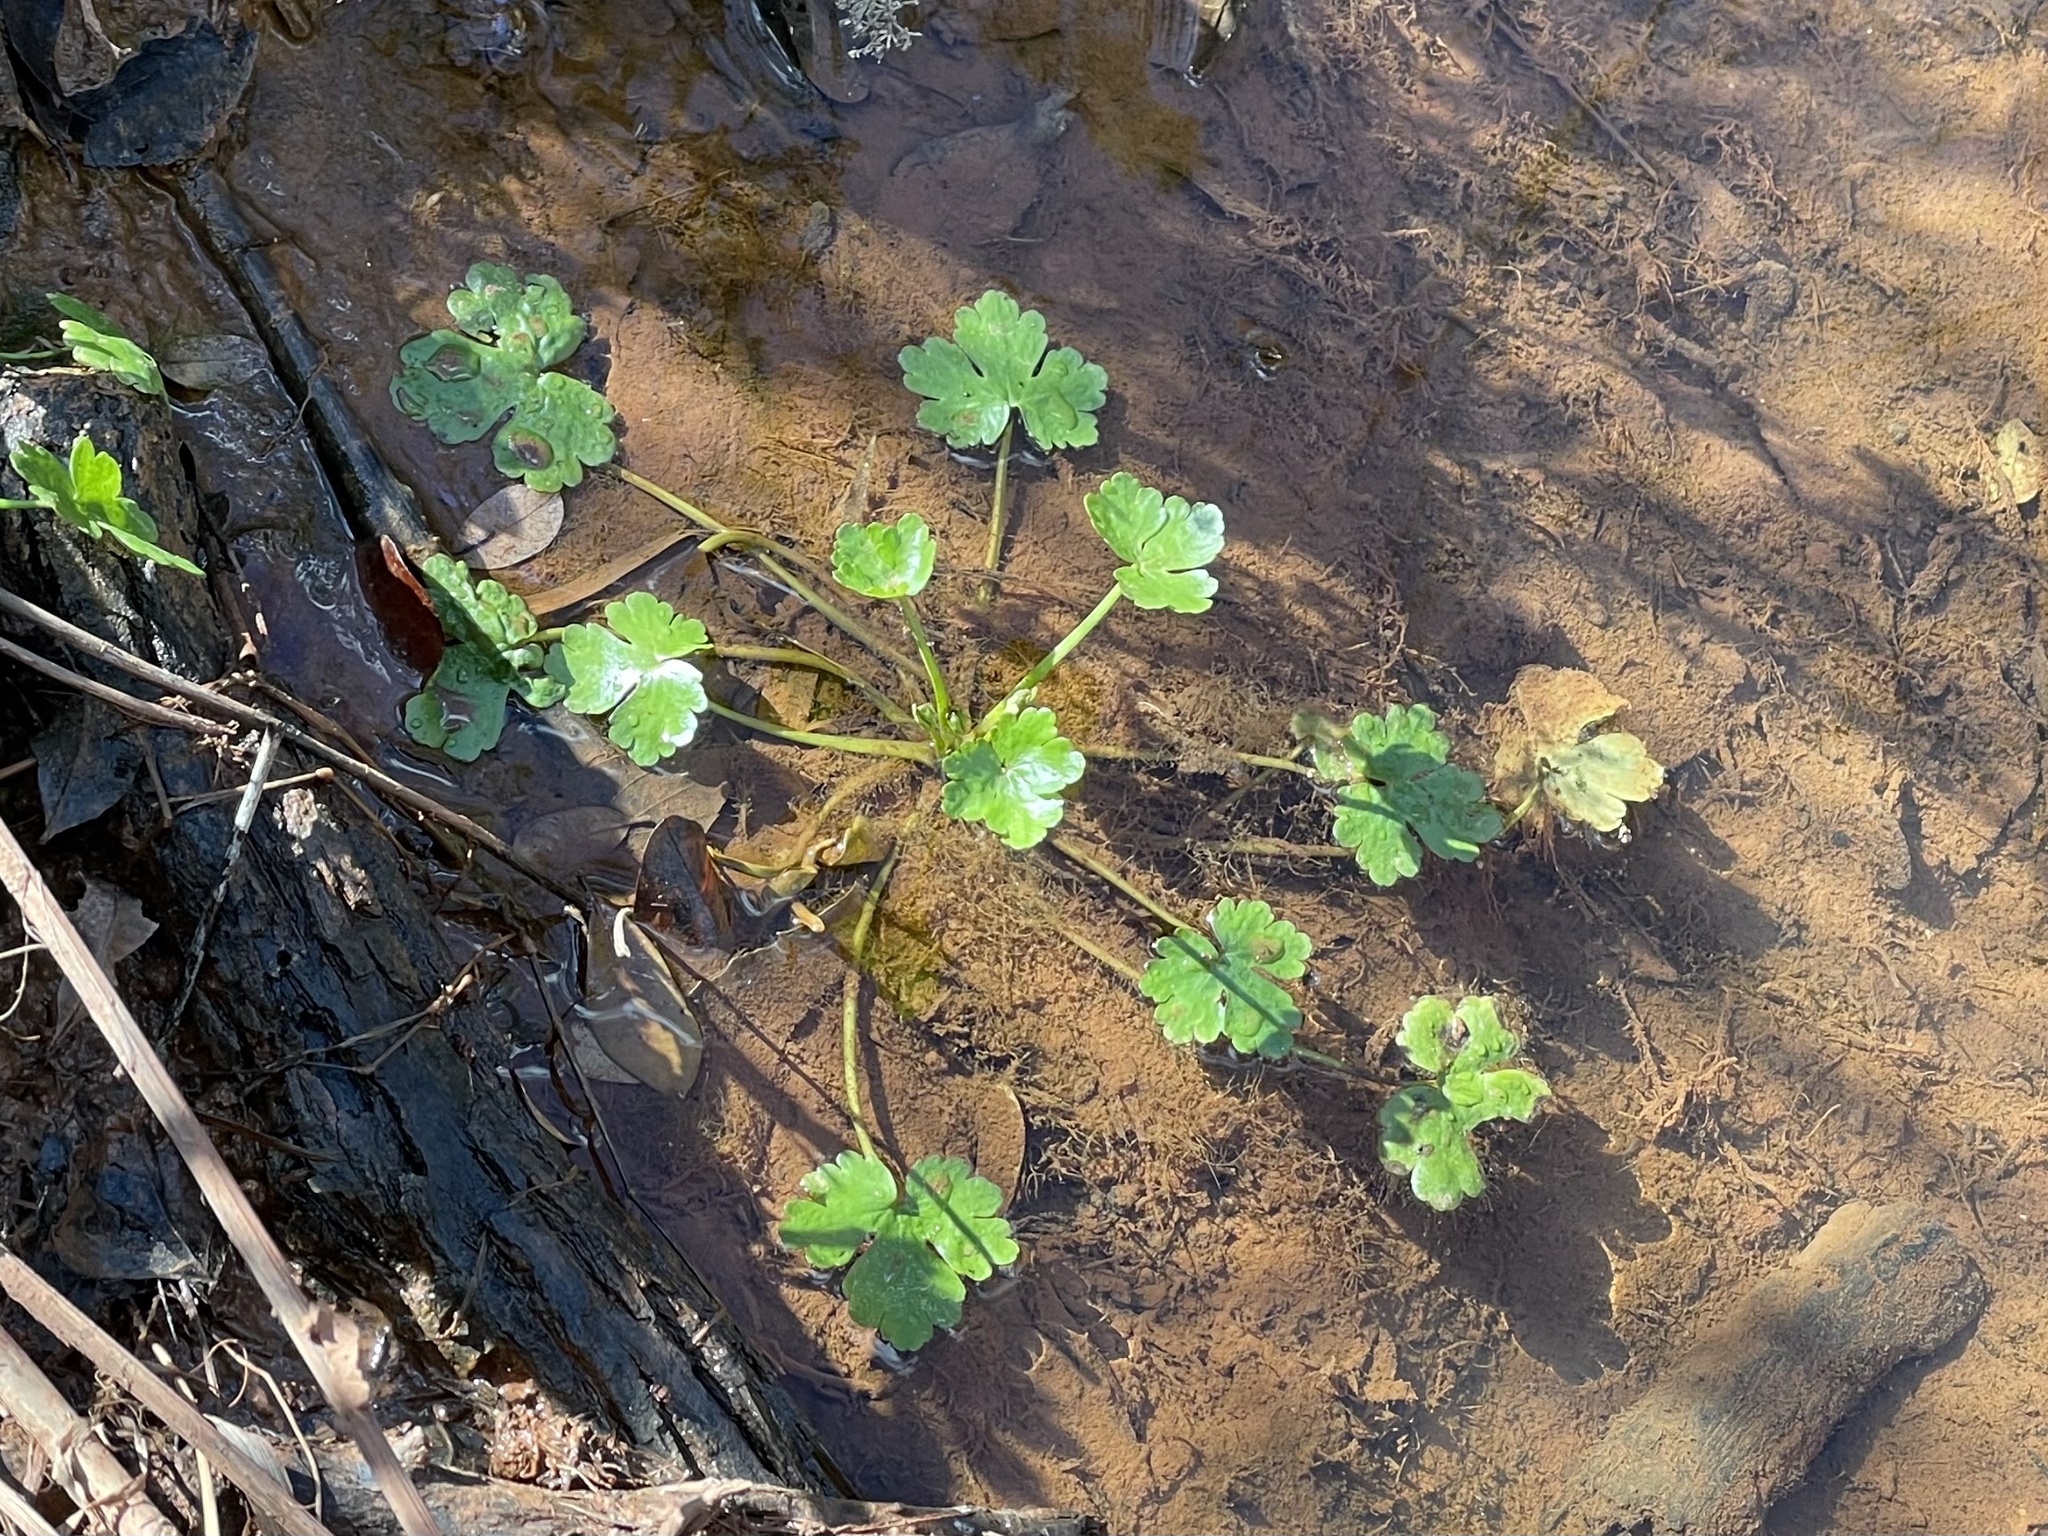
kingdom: Plantae
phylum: Tracheophyta
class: Magnoliopsida
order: Ranunculales
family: Ranunculaceae
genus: Ranunculus
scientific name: Ranunculus sceleratus
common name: Celery-leaved buttercup
